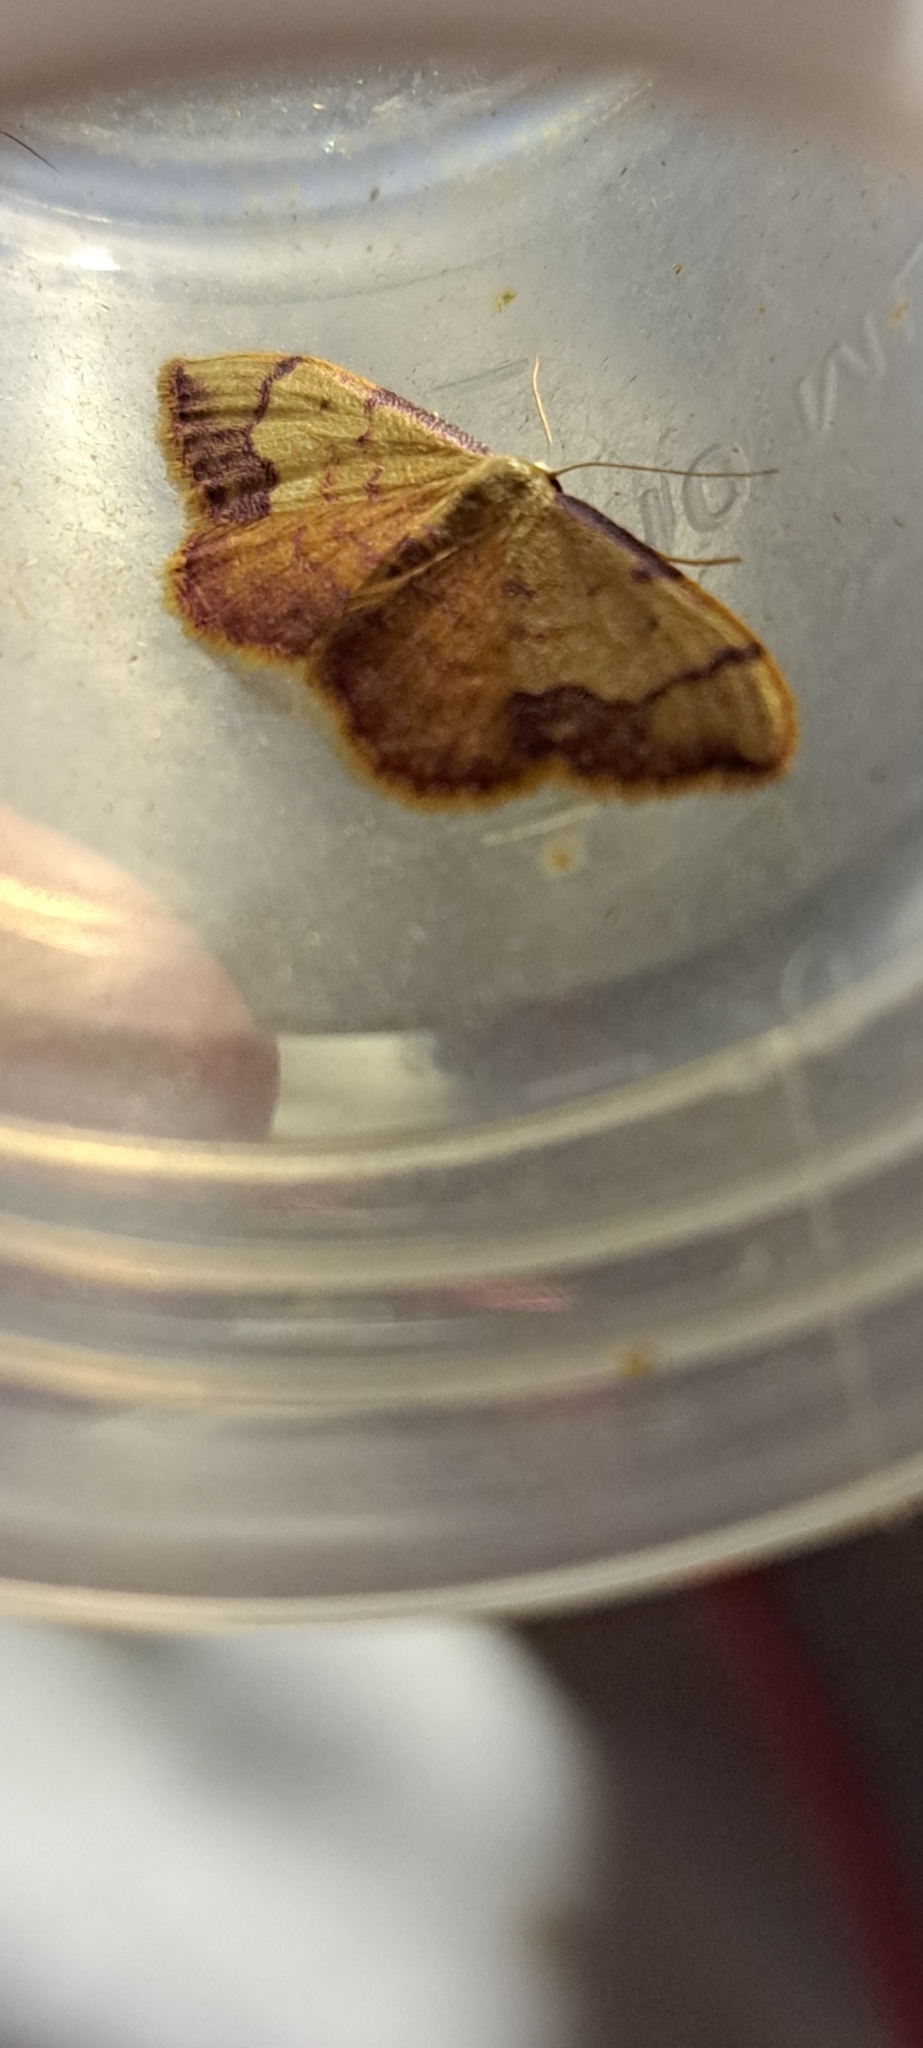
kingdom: Animalia
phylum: Arthropoda
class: Insecta
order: Lepidoptera
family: Geometridae
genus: Idaea
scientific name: Idaea ostrinaria
